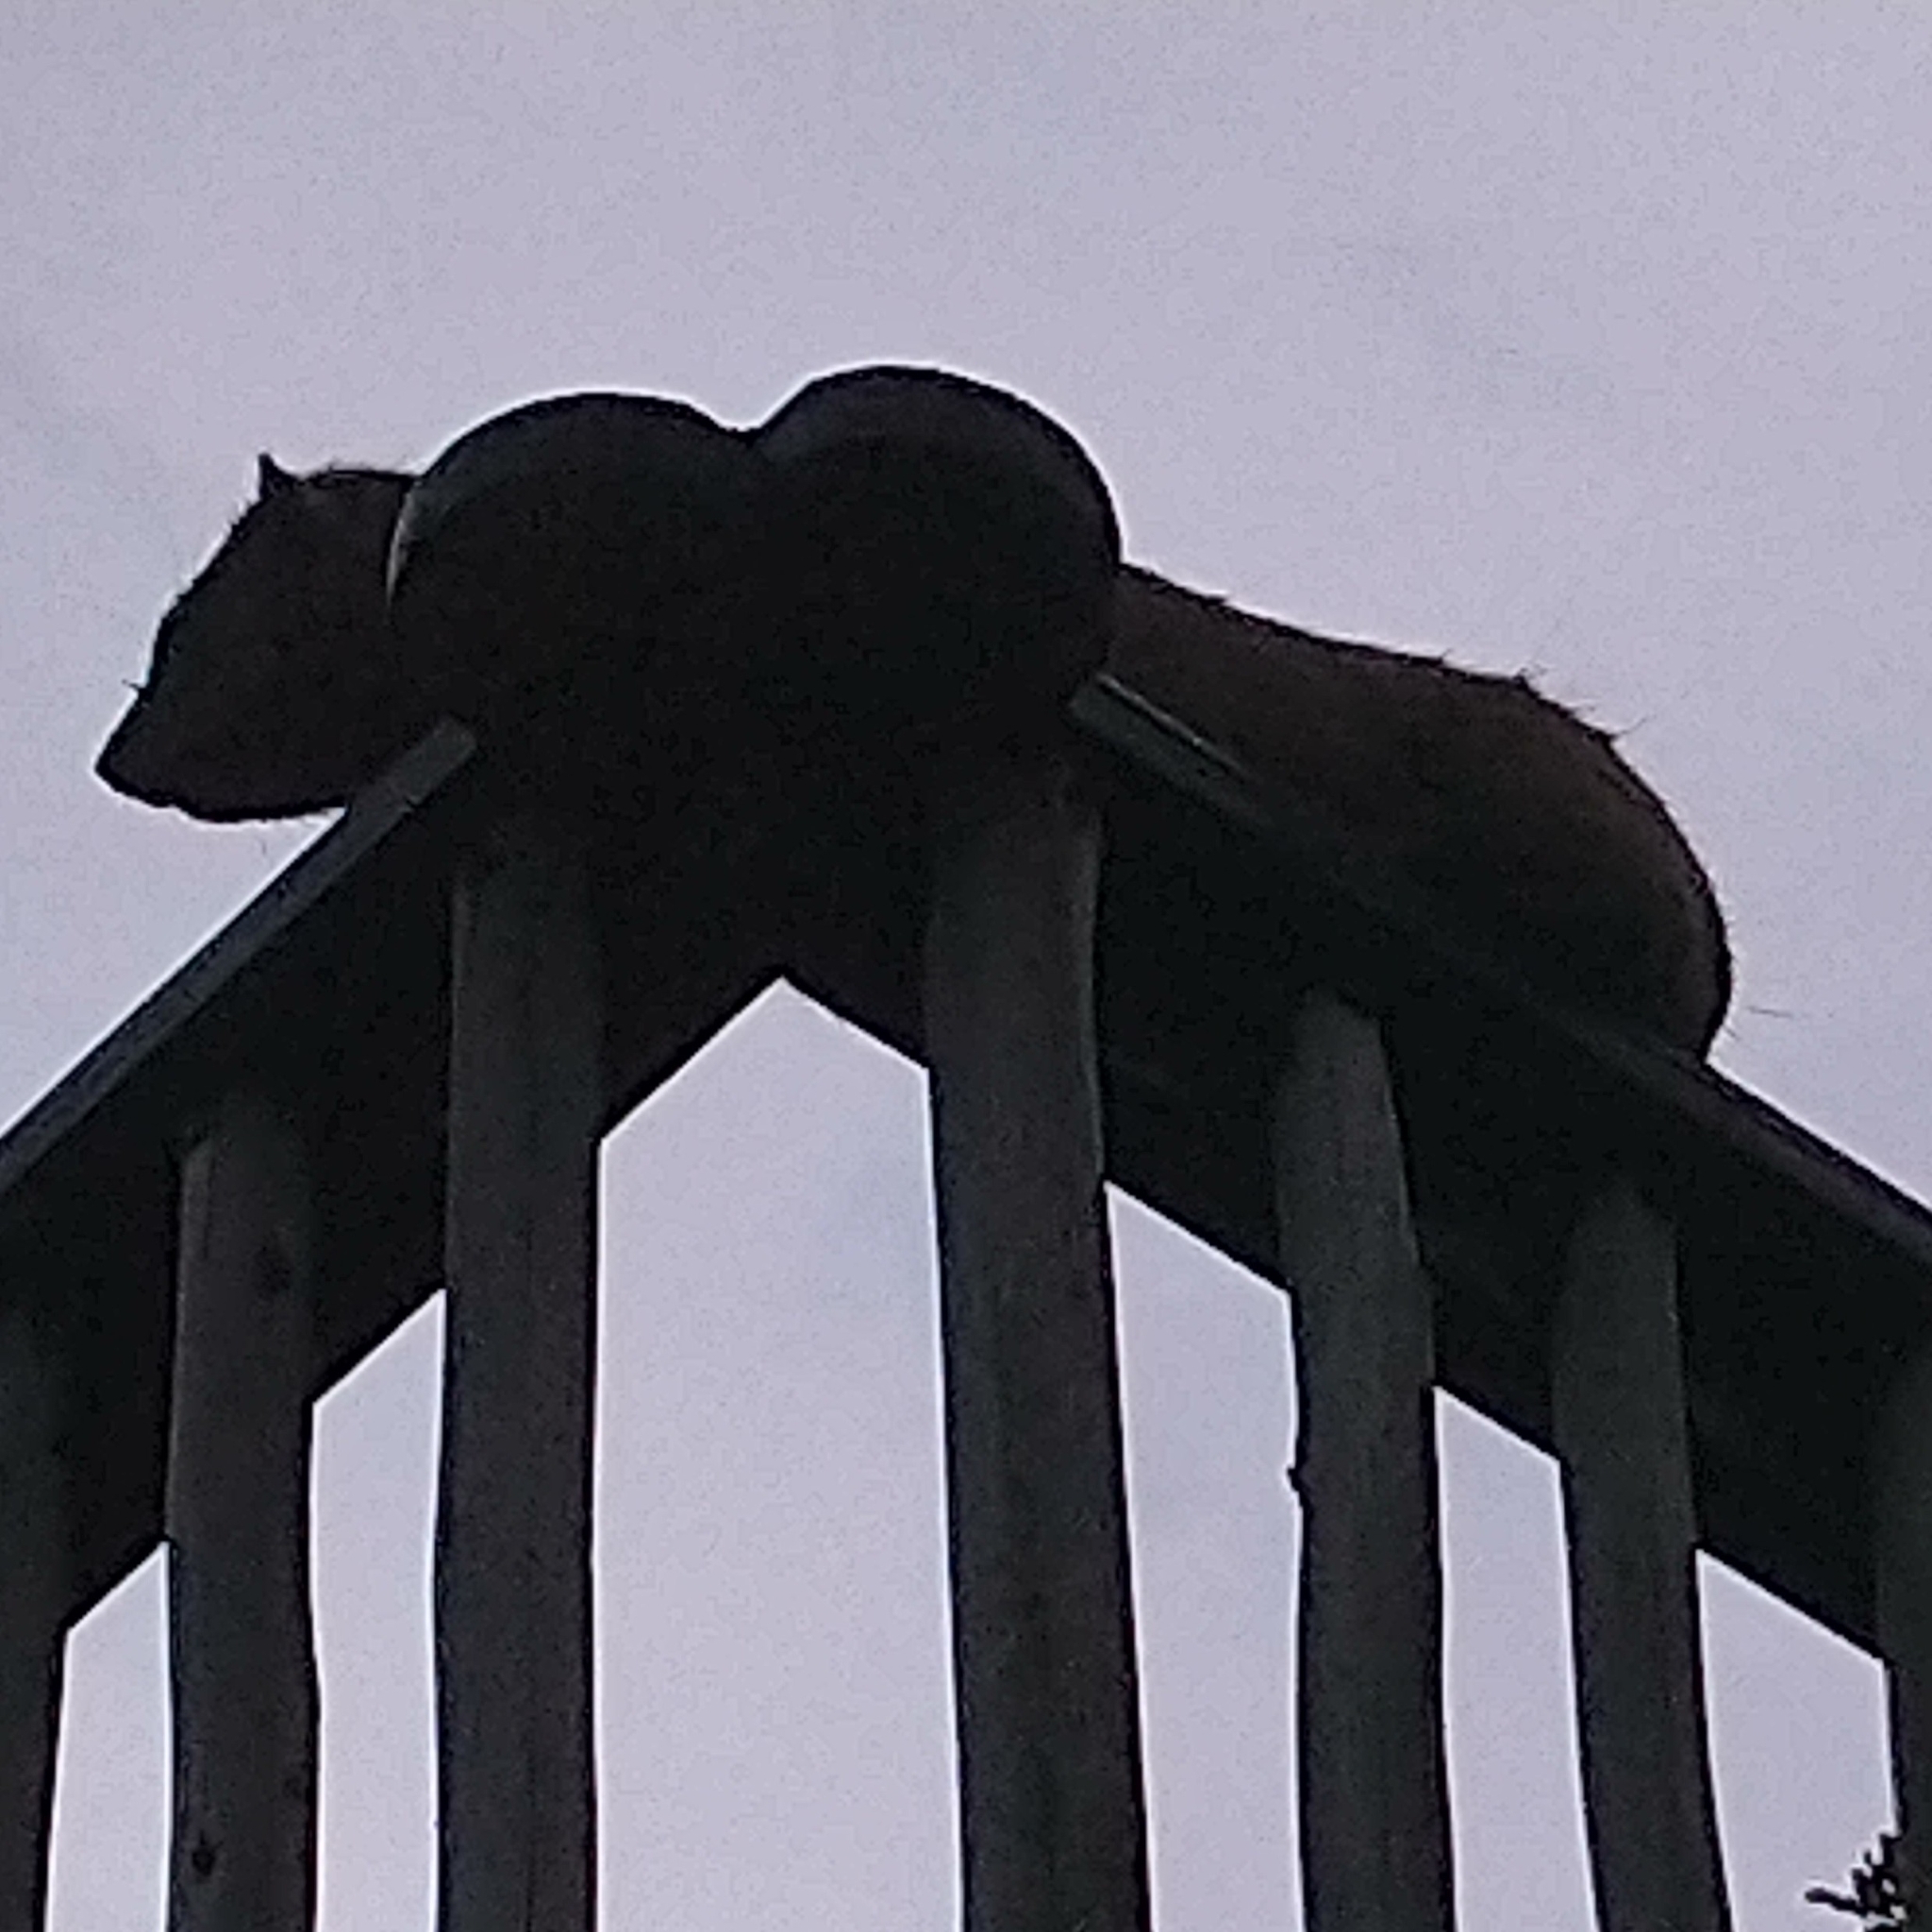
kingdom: Animalia
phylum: Chordata
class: Mammalia
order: Hyracoidea
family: Procaviidae
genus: Procavia
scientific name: Procavia capensis
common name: Rock hyrax
